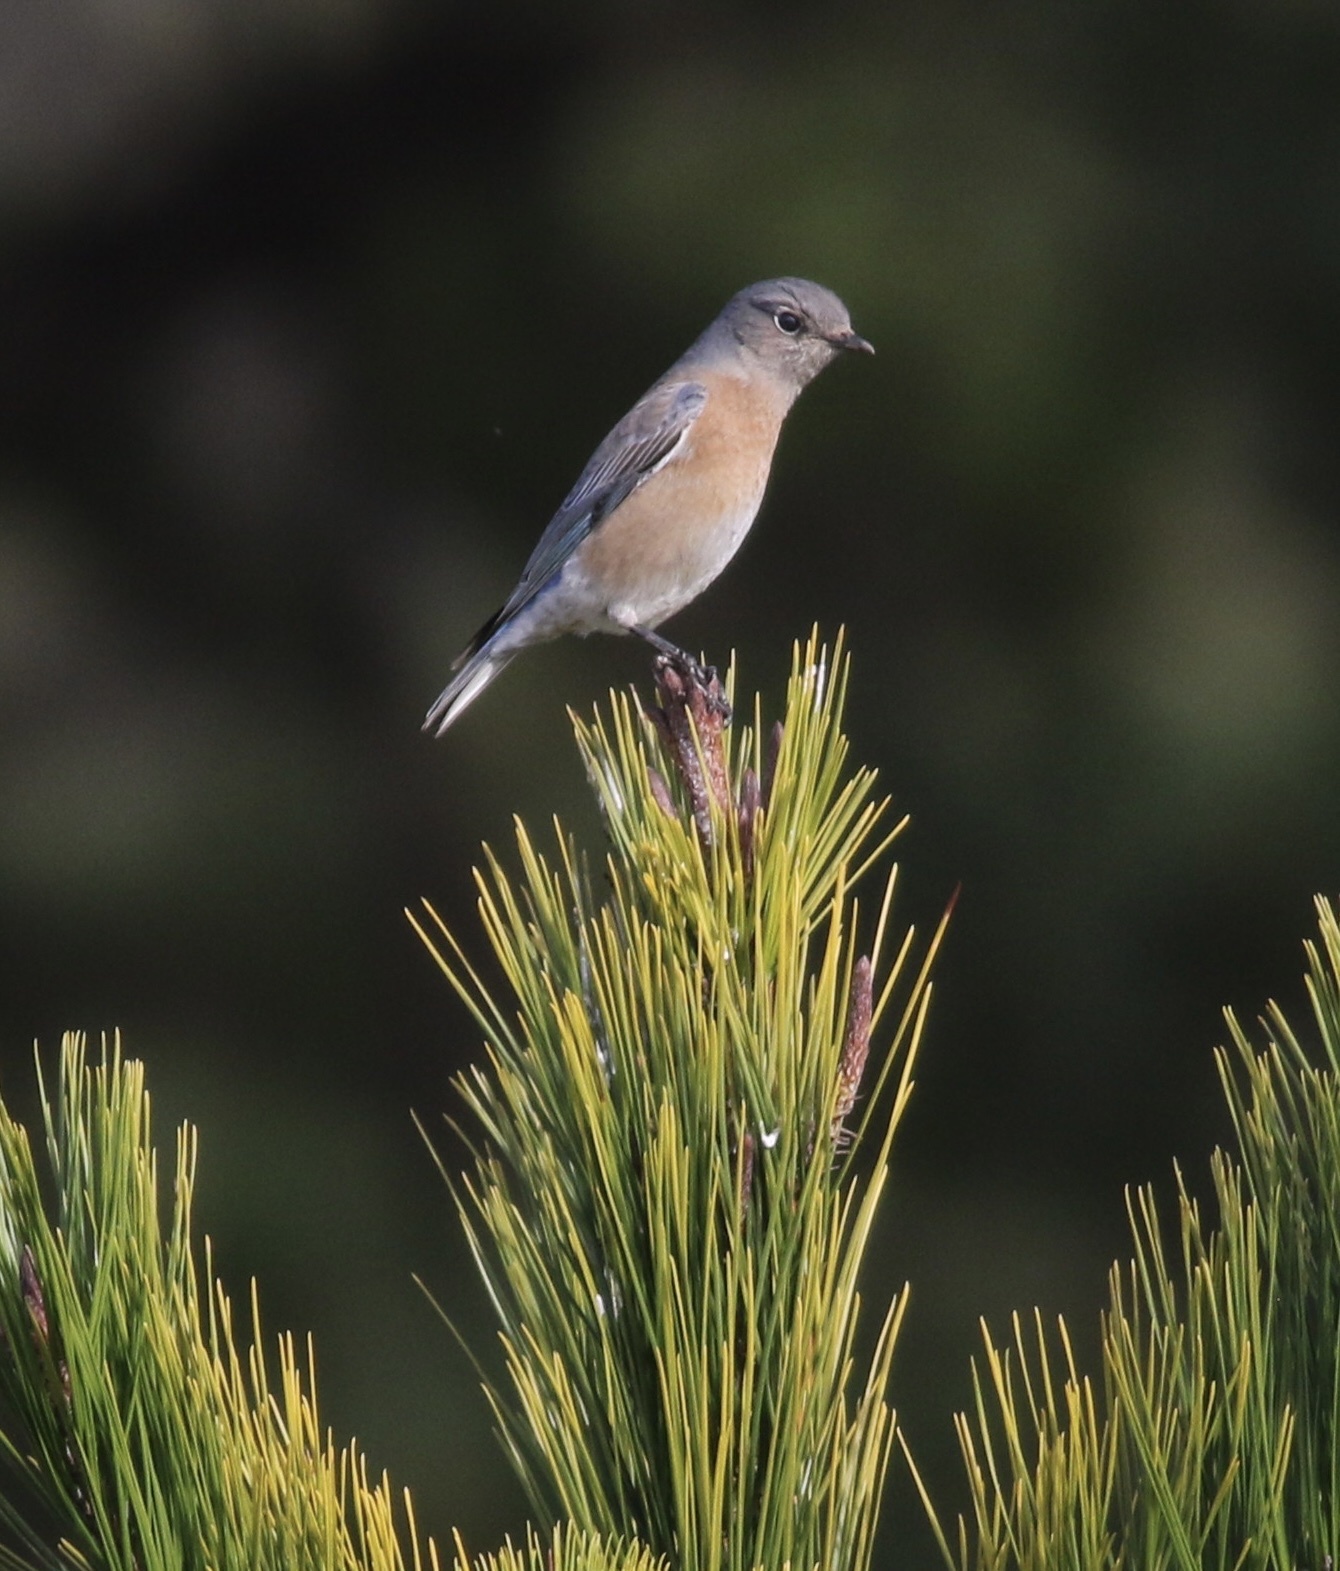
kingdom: Animalia
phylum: Chordata
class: Aves
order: Passeriformes
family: Turdidae
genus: Sialia
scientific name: Sialia mexicana
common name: Western bluebird
